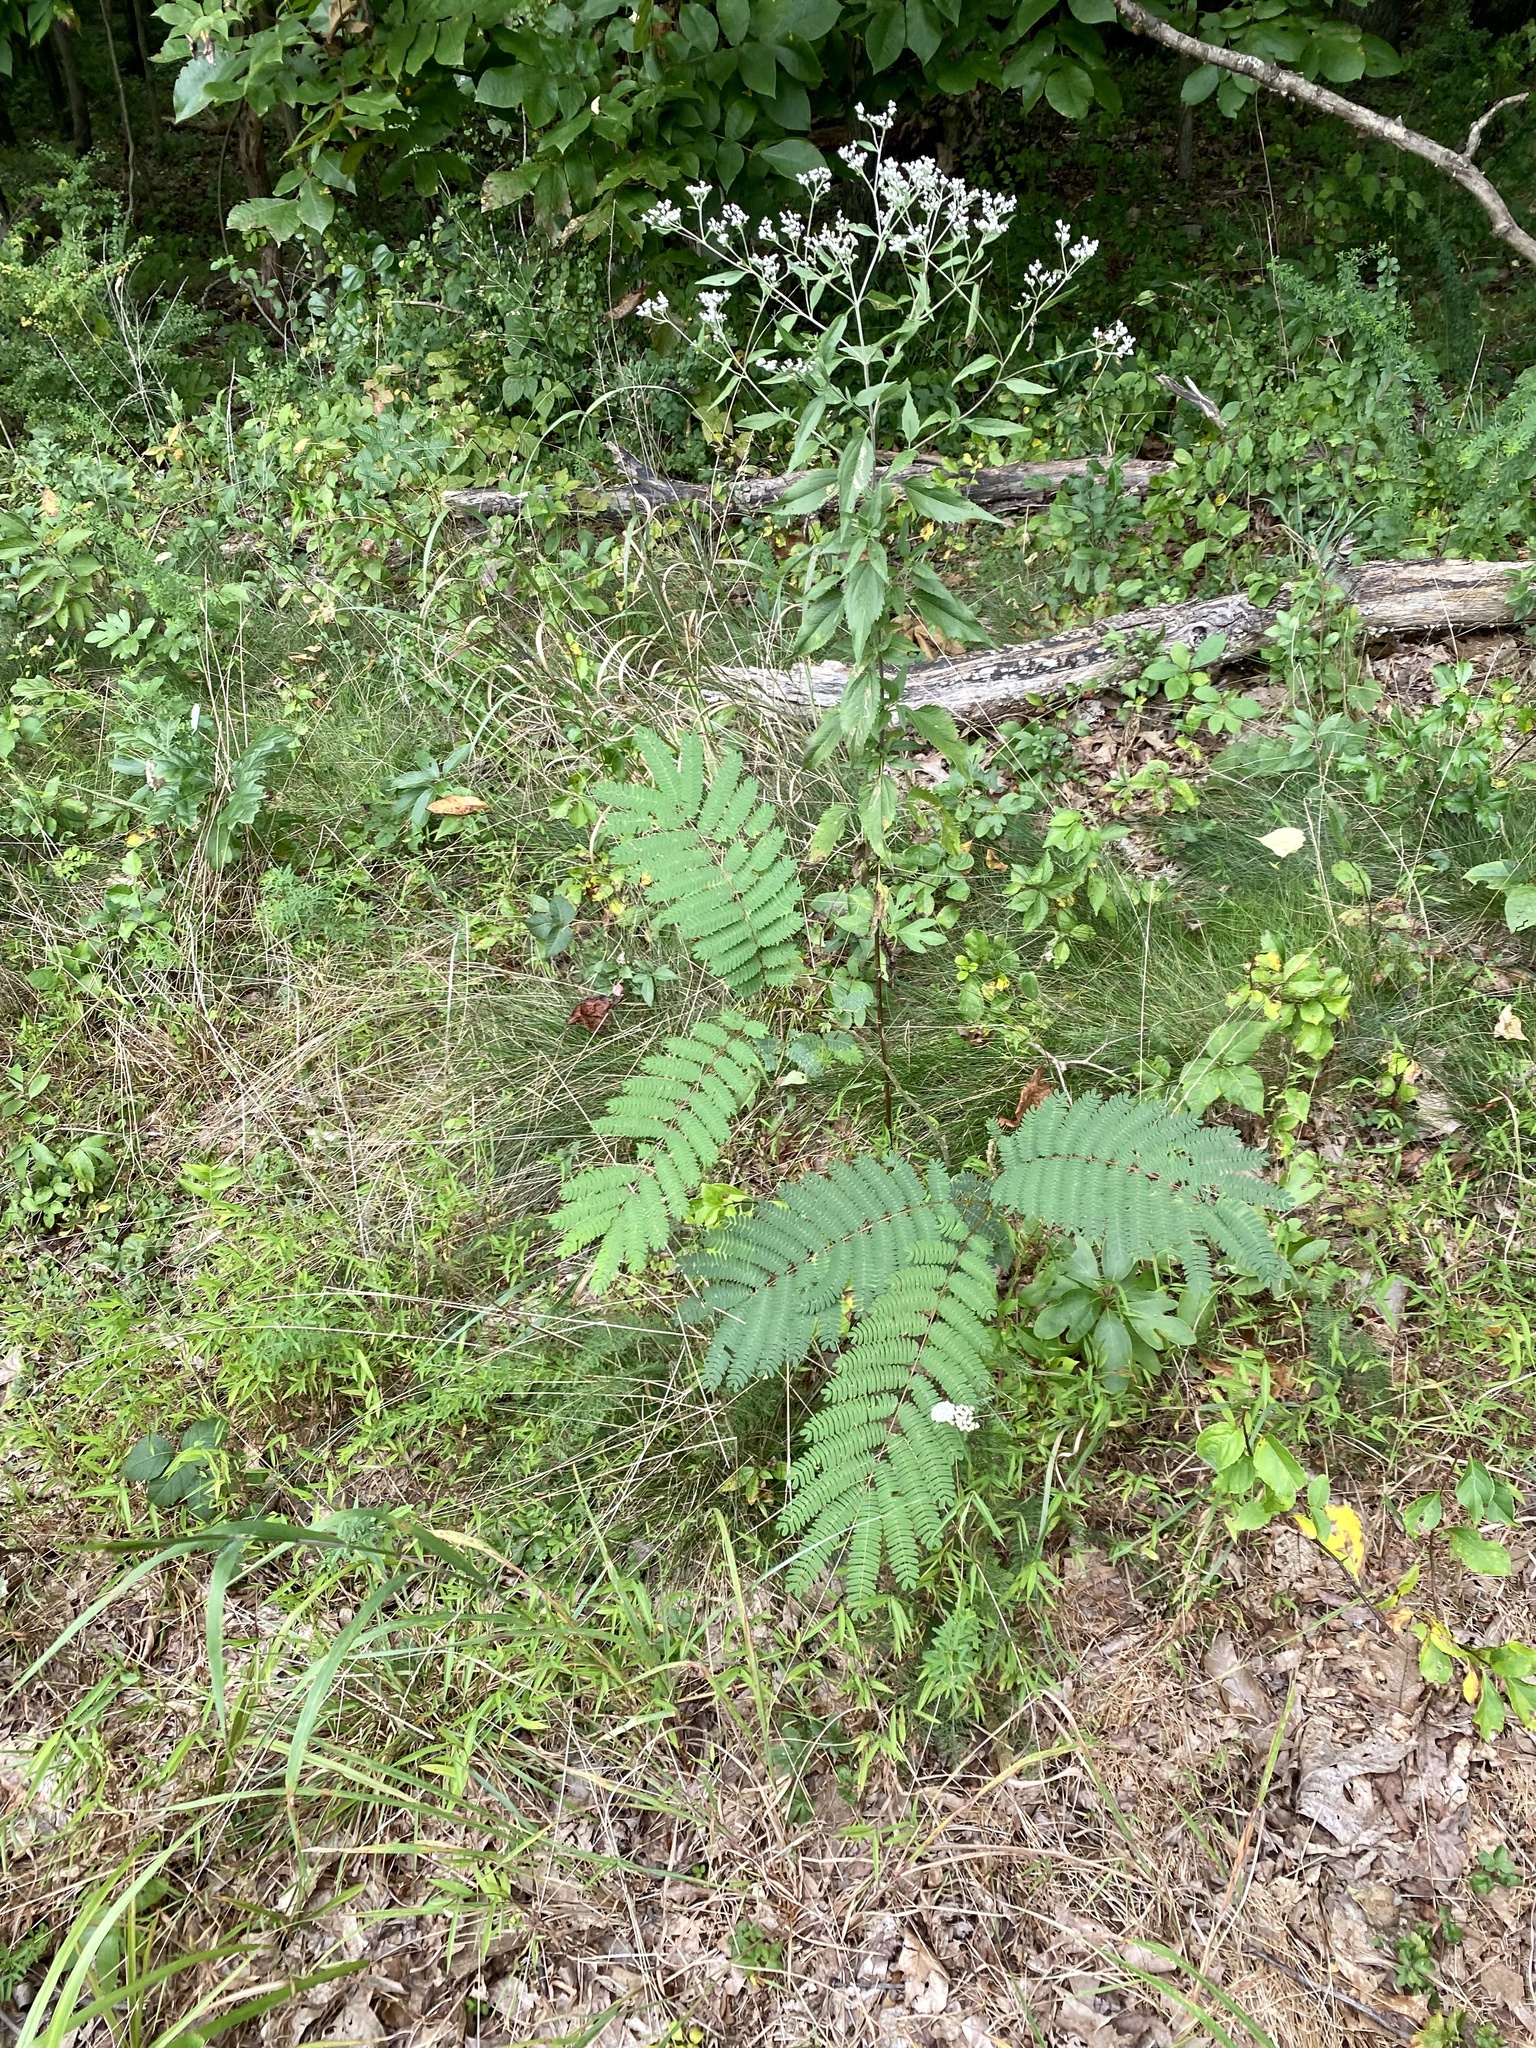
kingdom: Plantae
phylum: Tracheophyta
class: Magnoliopsida
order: Fabales
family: Fabaceae
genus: Albizia
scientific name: Albizia julibrissin
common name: Silktree
